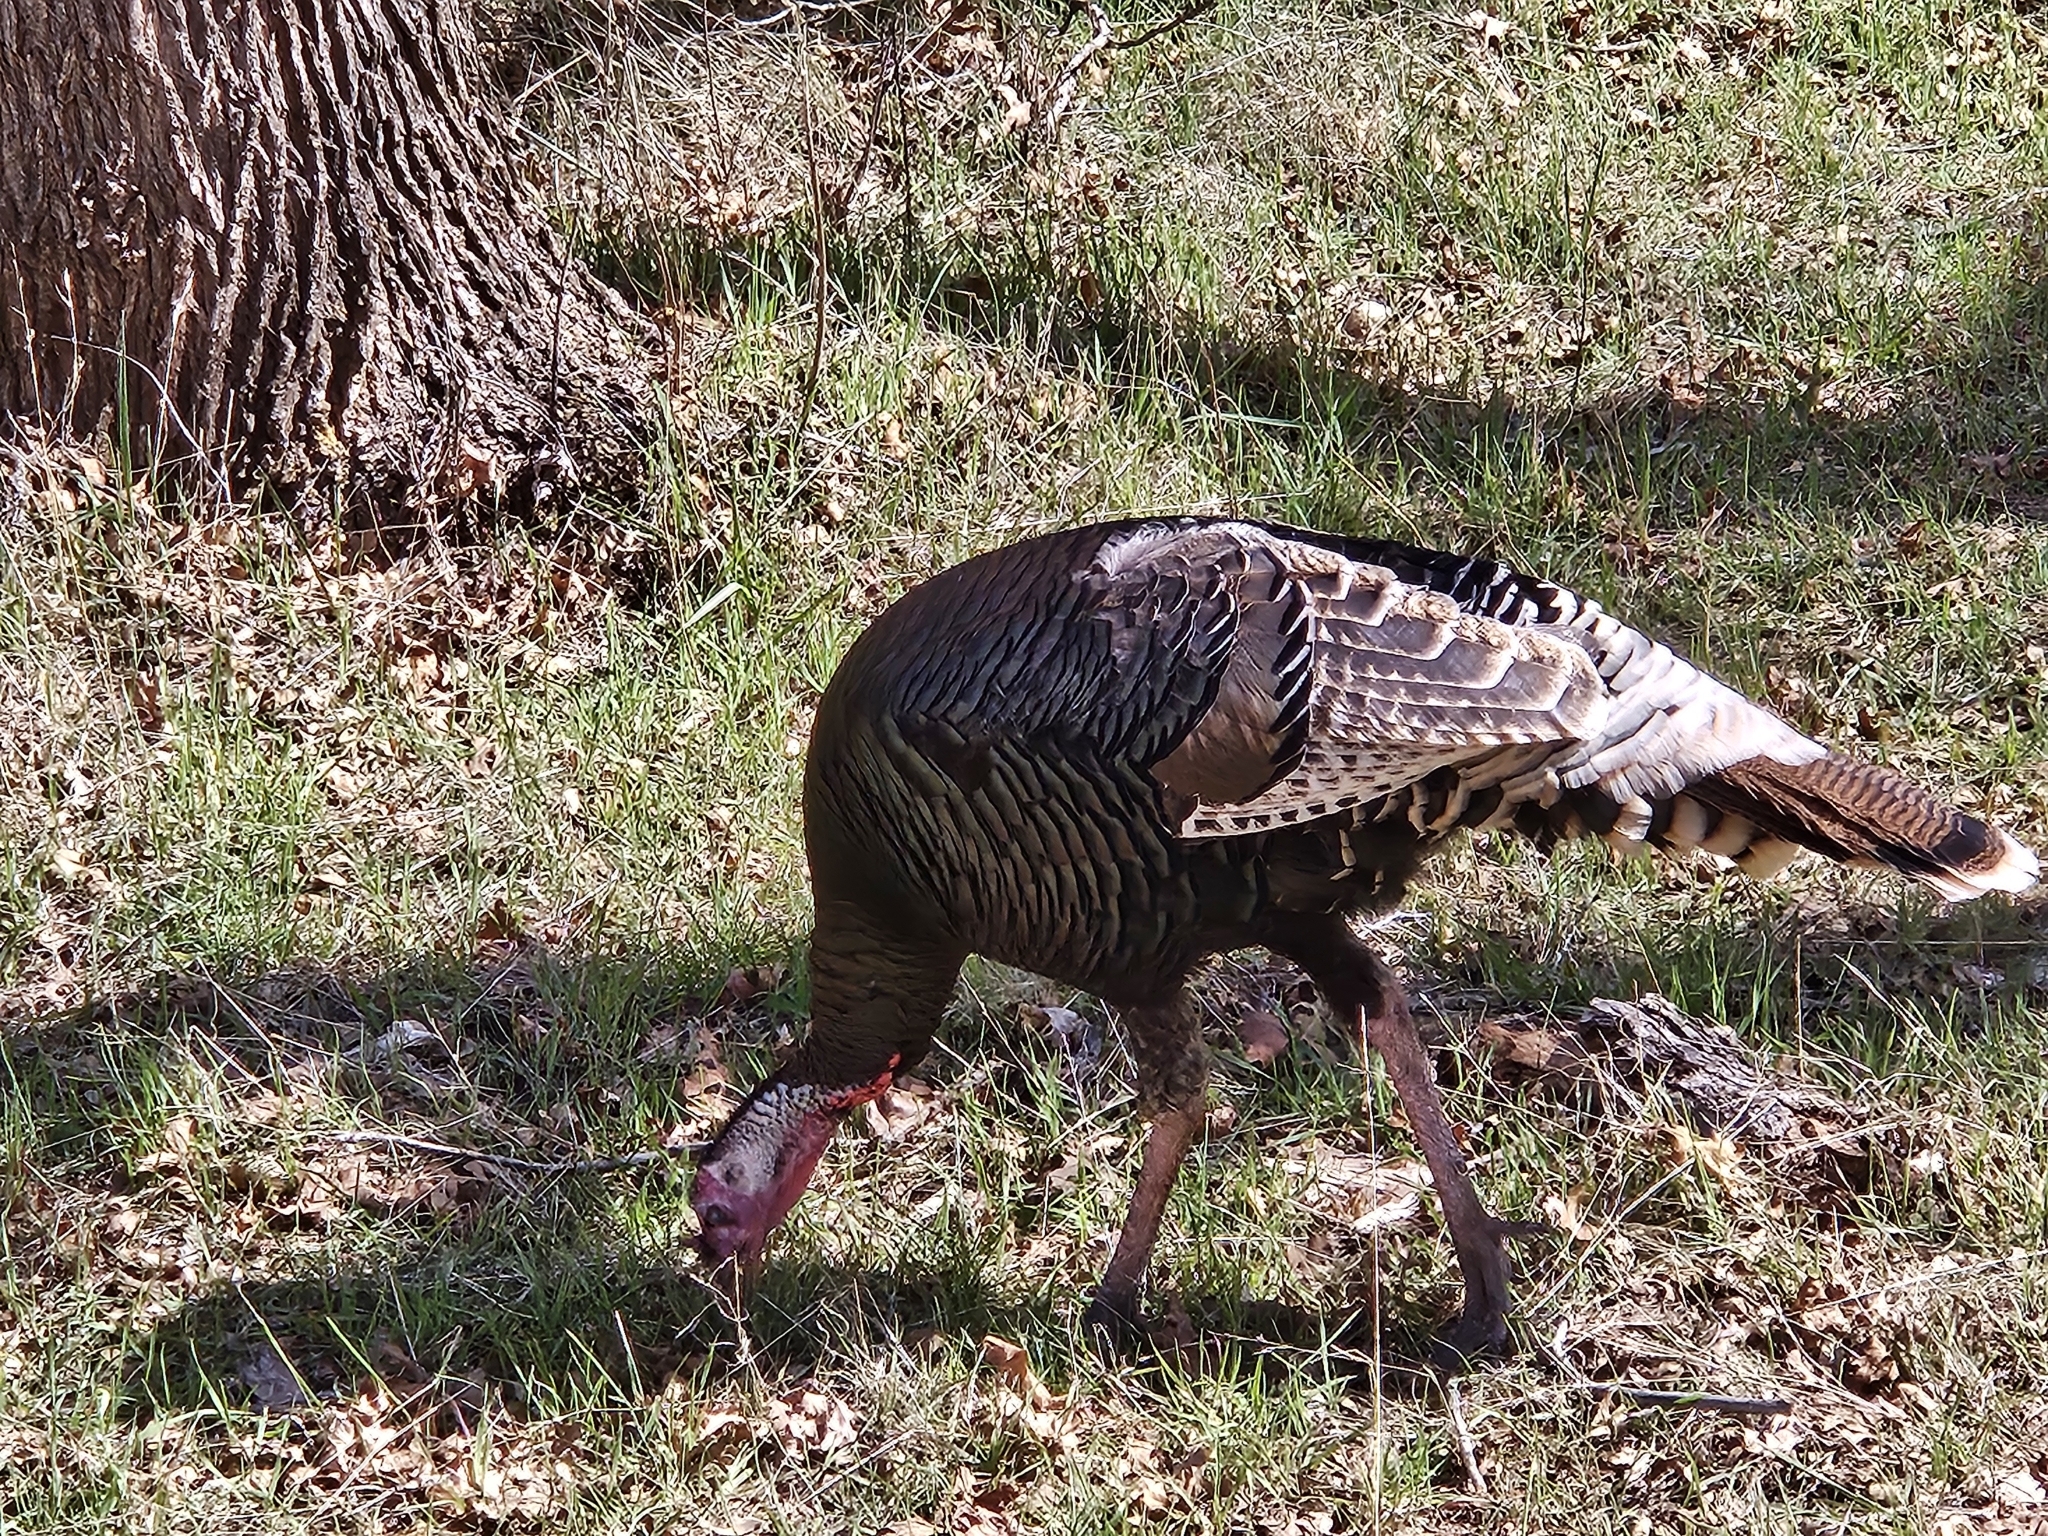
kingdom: Animalia
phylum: Chordata
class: Aves
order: Galliformes
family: Phasianidae
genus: Meleagris
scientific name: Meleagris gallopavo
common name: Wild turkey
